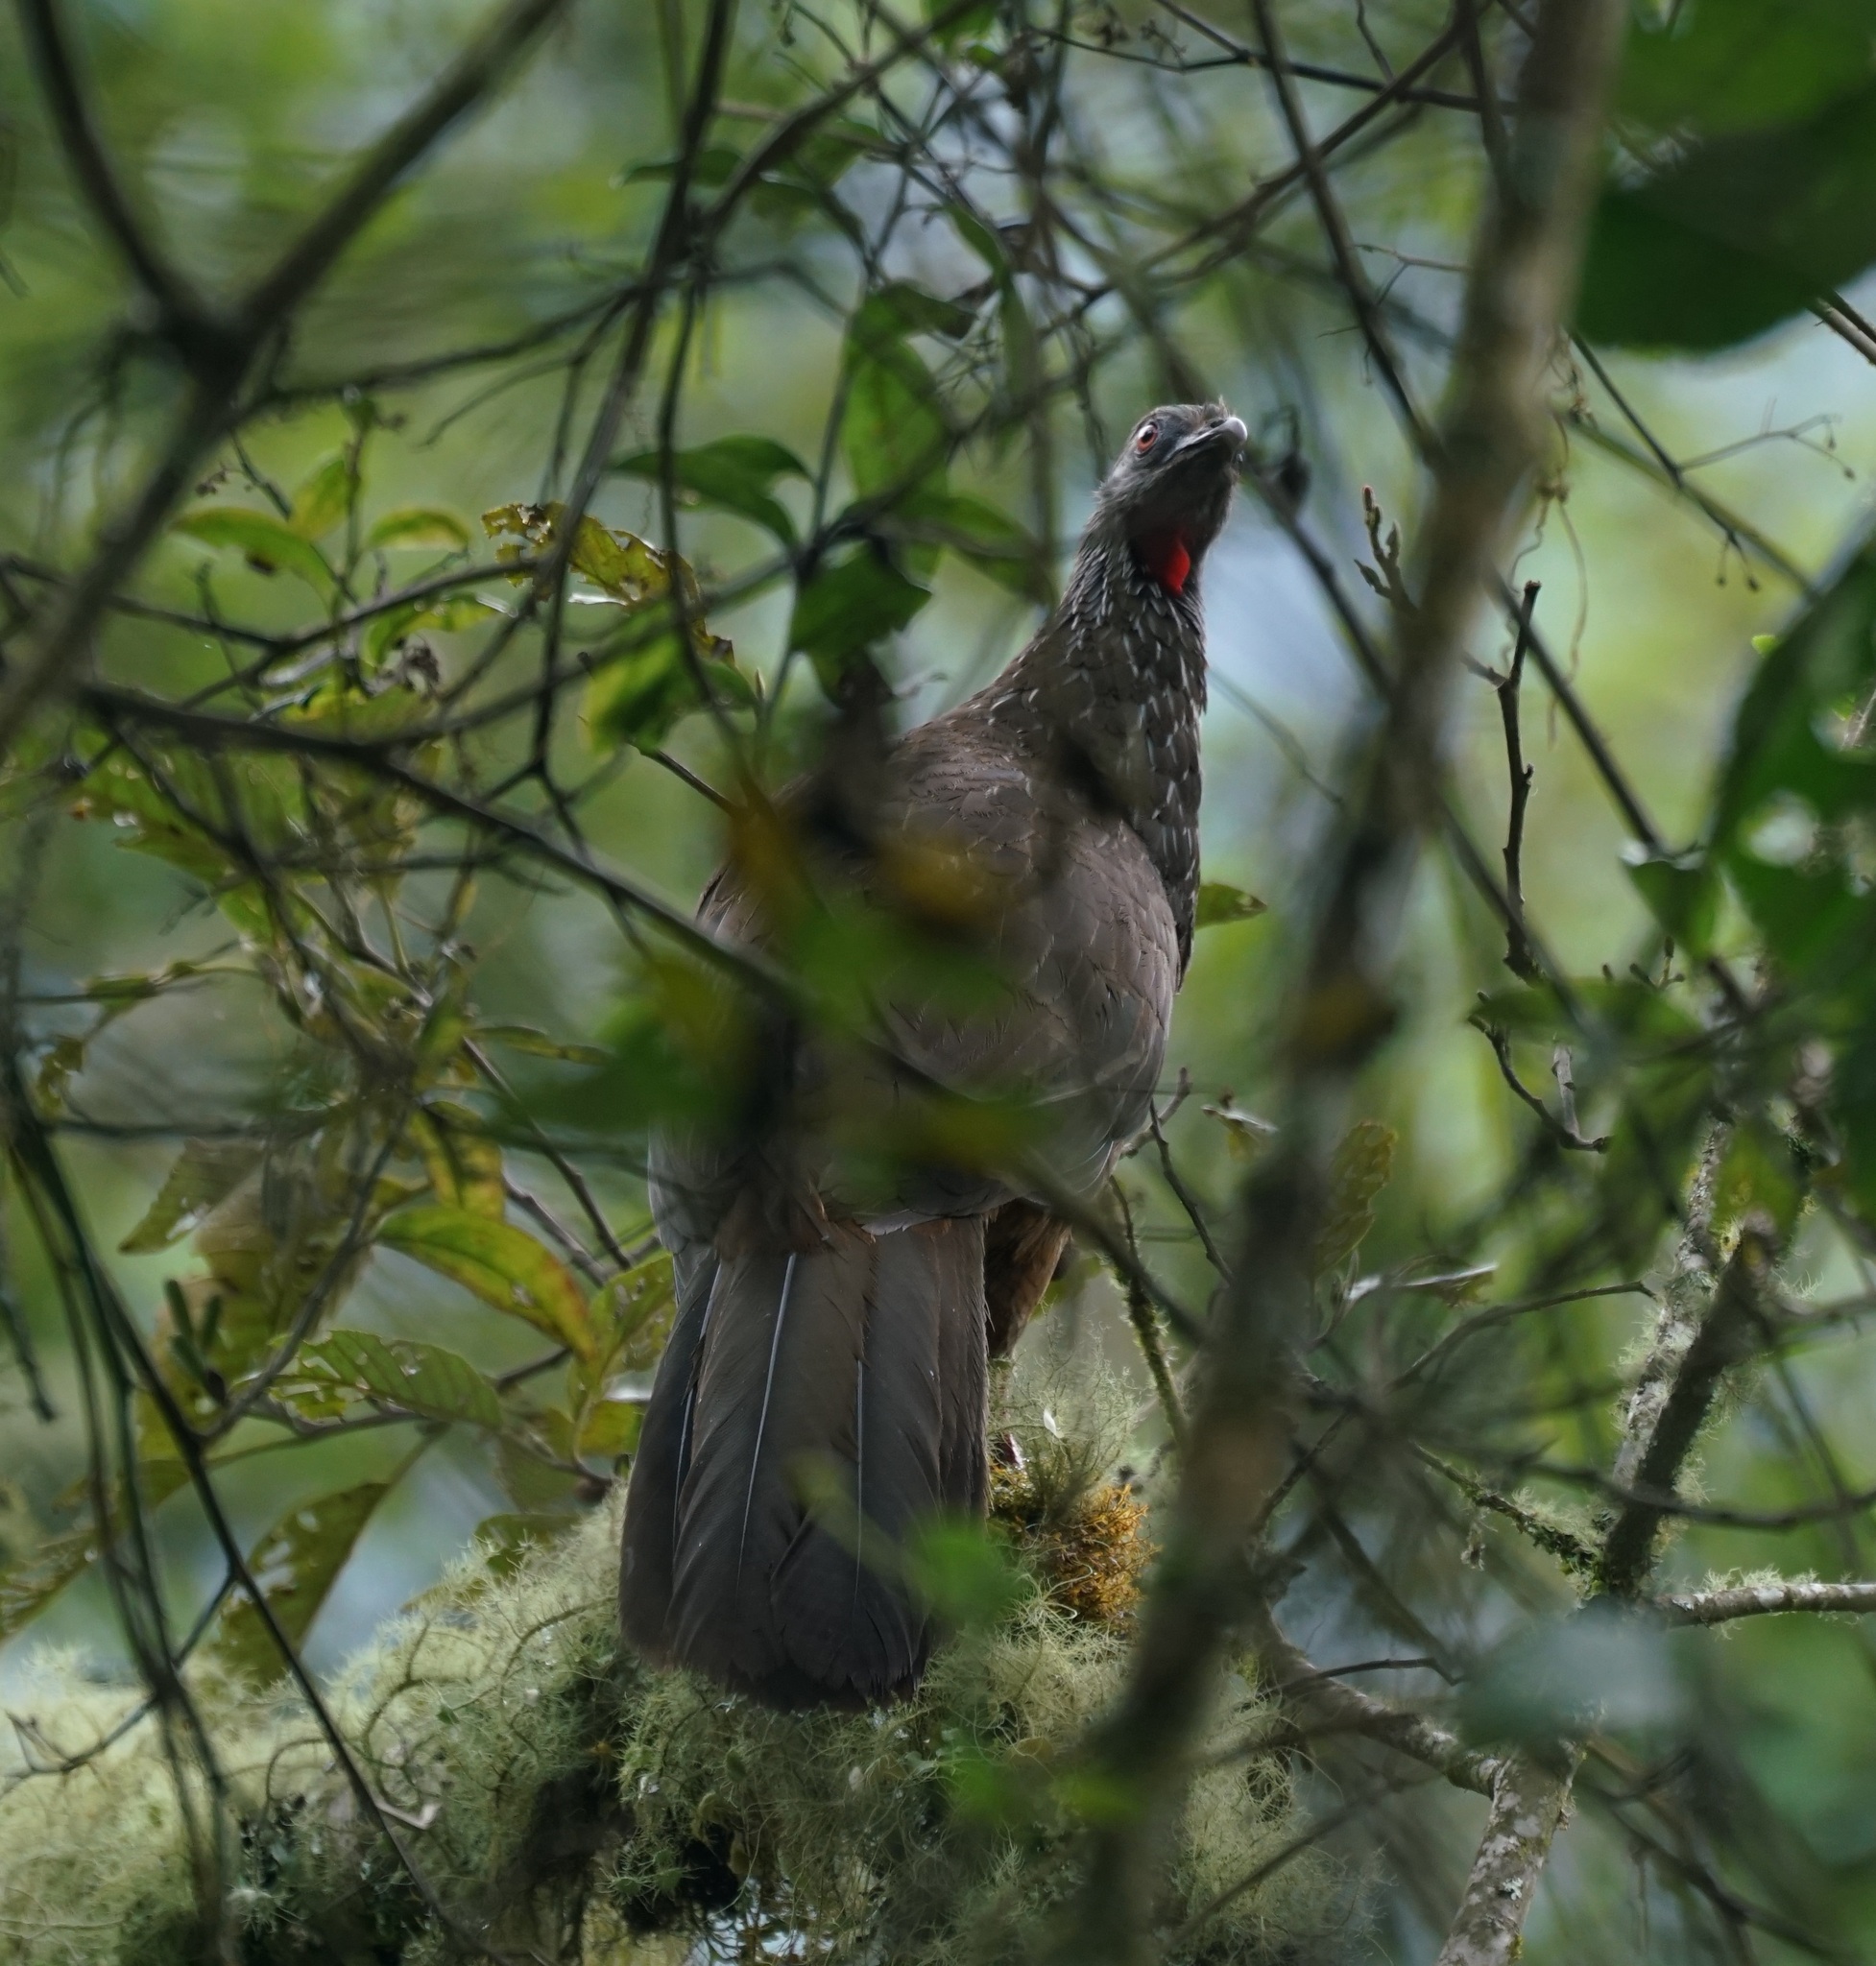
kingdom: Animalia
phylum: Chordata
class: Aves
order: Galliformes
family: Cracidae
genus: Penelope
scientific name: Penelope montagnii
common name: Andean guan
